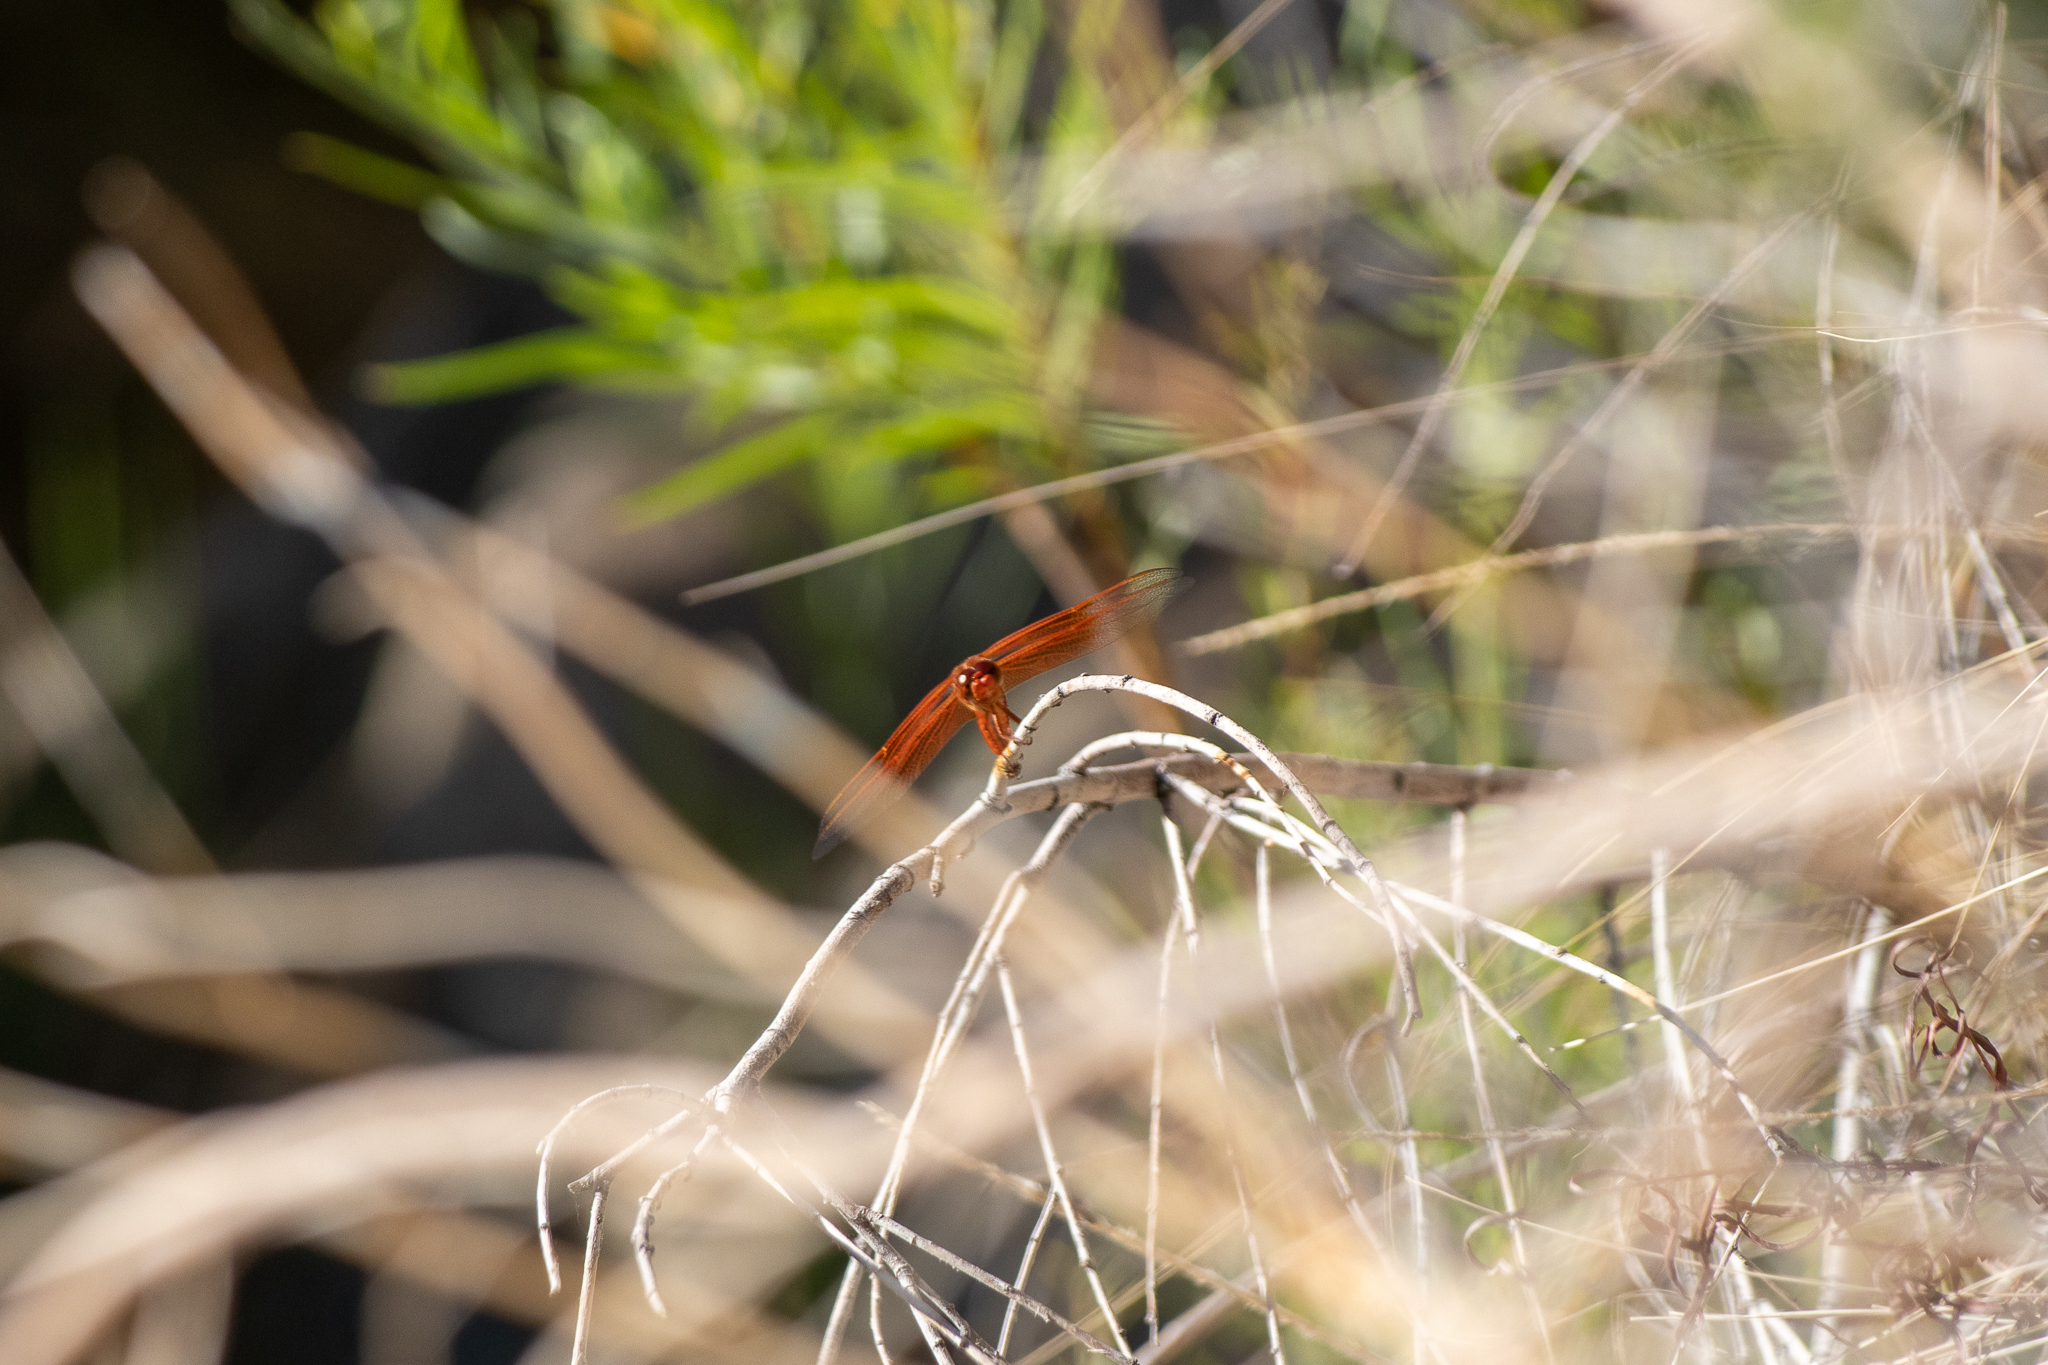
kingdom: Animalia
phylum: Arthropoda
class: Insecta
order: Odonata
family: Libellulidae
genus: Libellula
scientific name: Libellula saturata
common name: Flame skimmer
